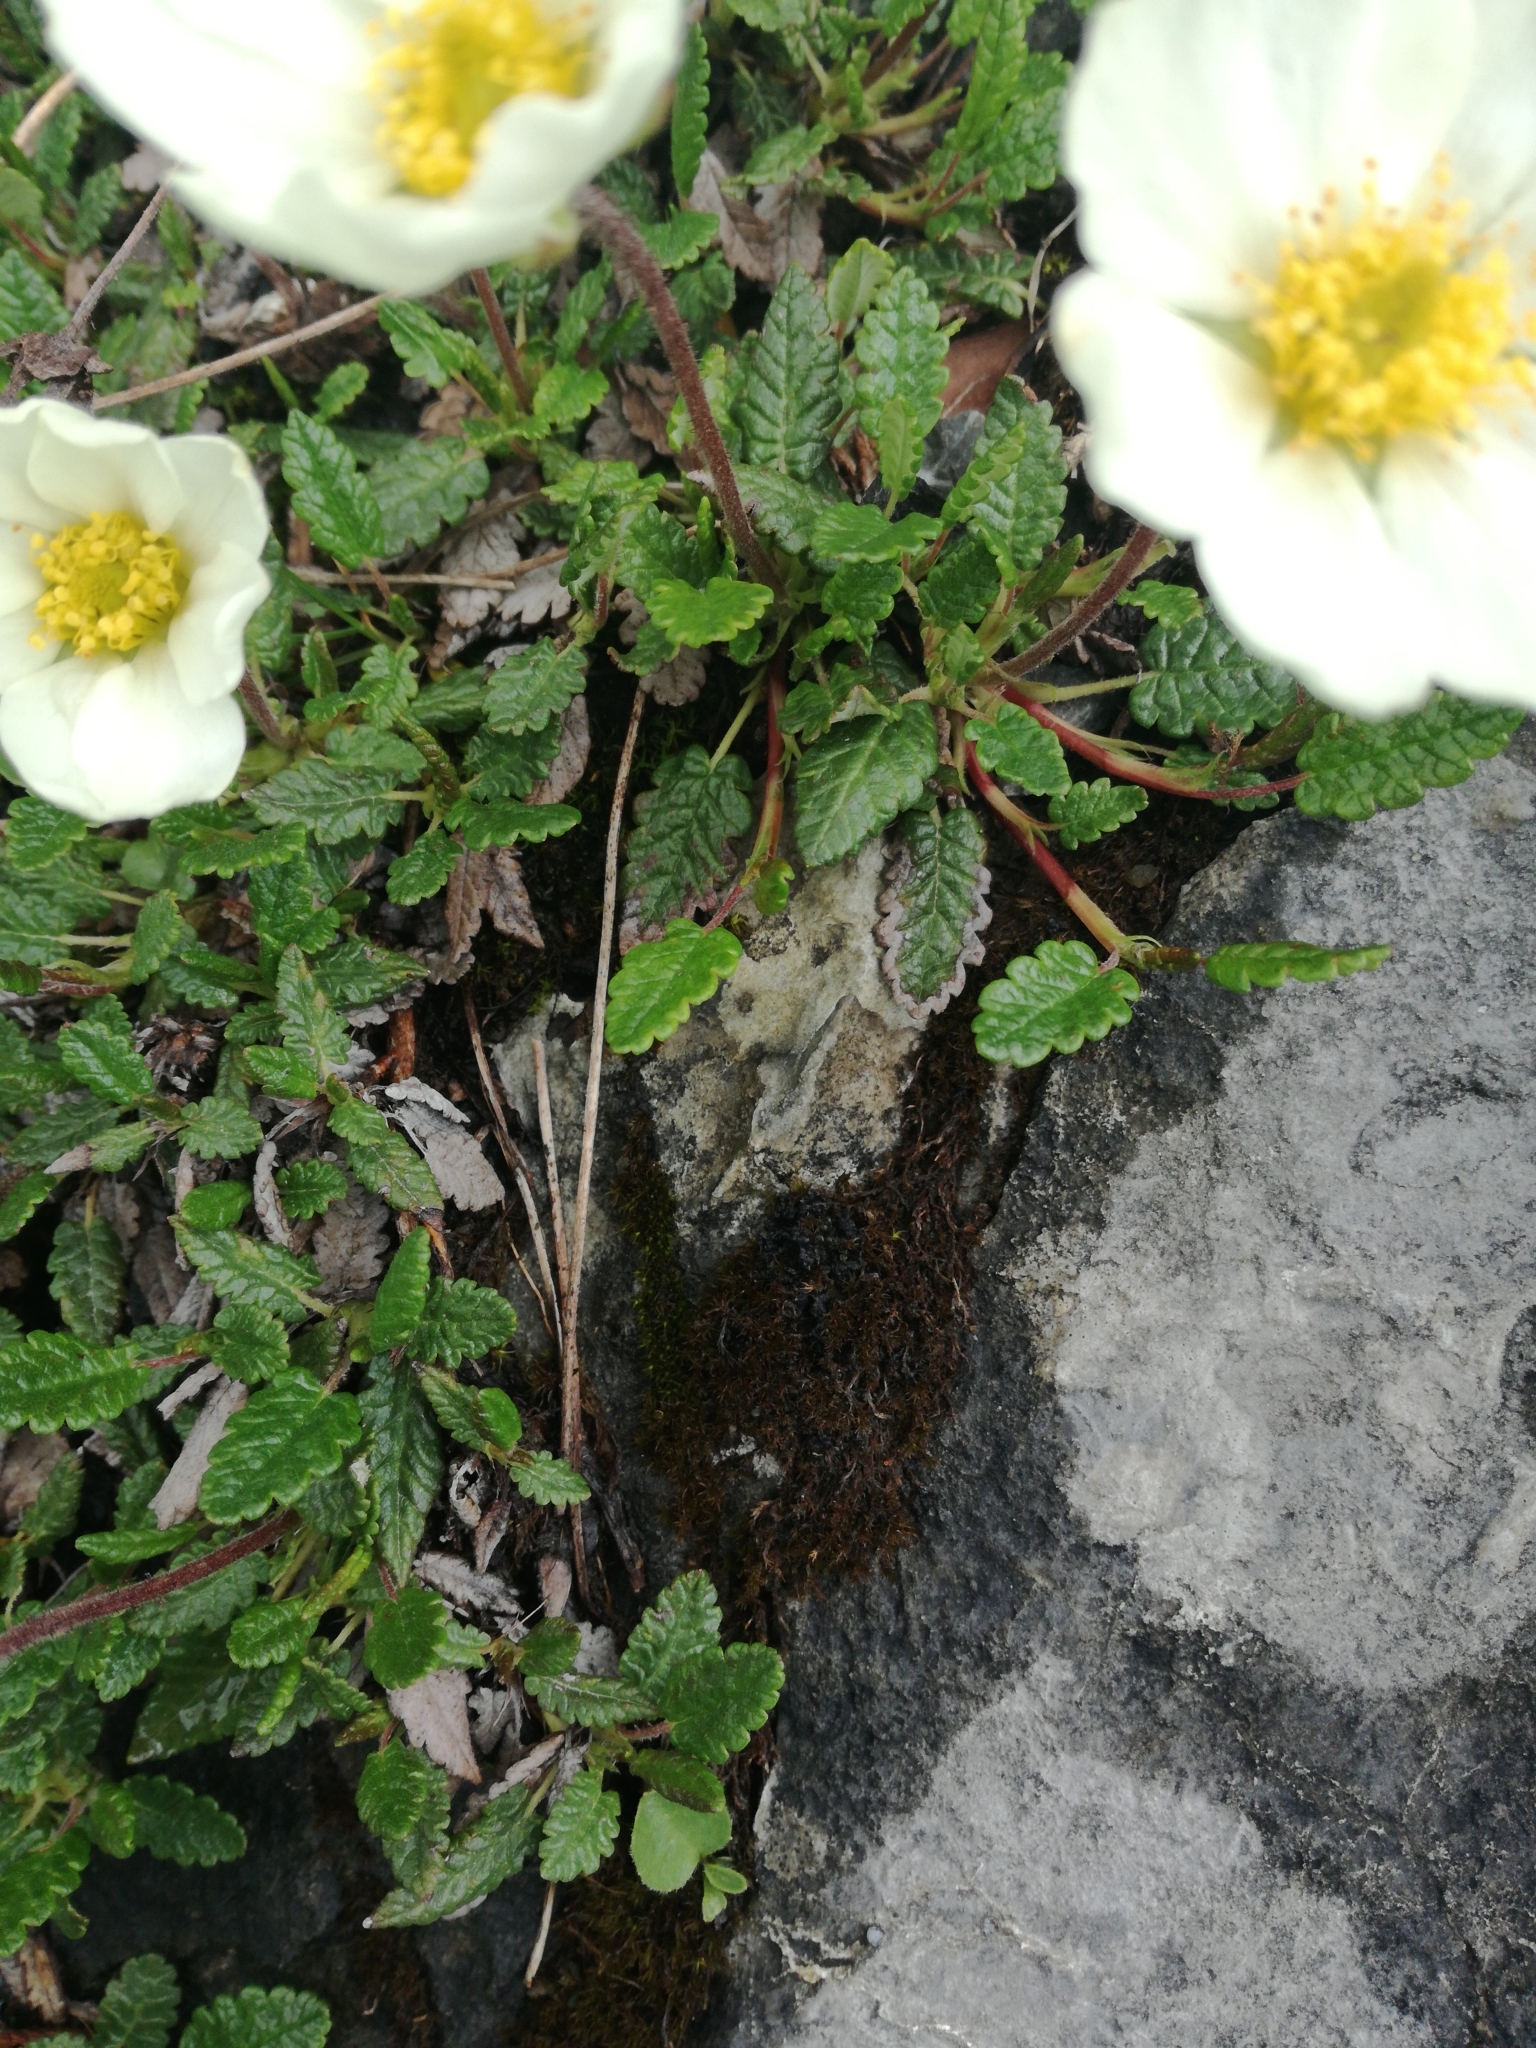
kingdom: Plantae
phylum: Tracheophyta
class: Magnoliopsida
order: Rosales
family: Rosaceae
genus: Dryas
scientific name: Dryas octopetala
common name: Eight-petal mountain-avens
